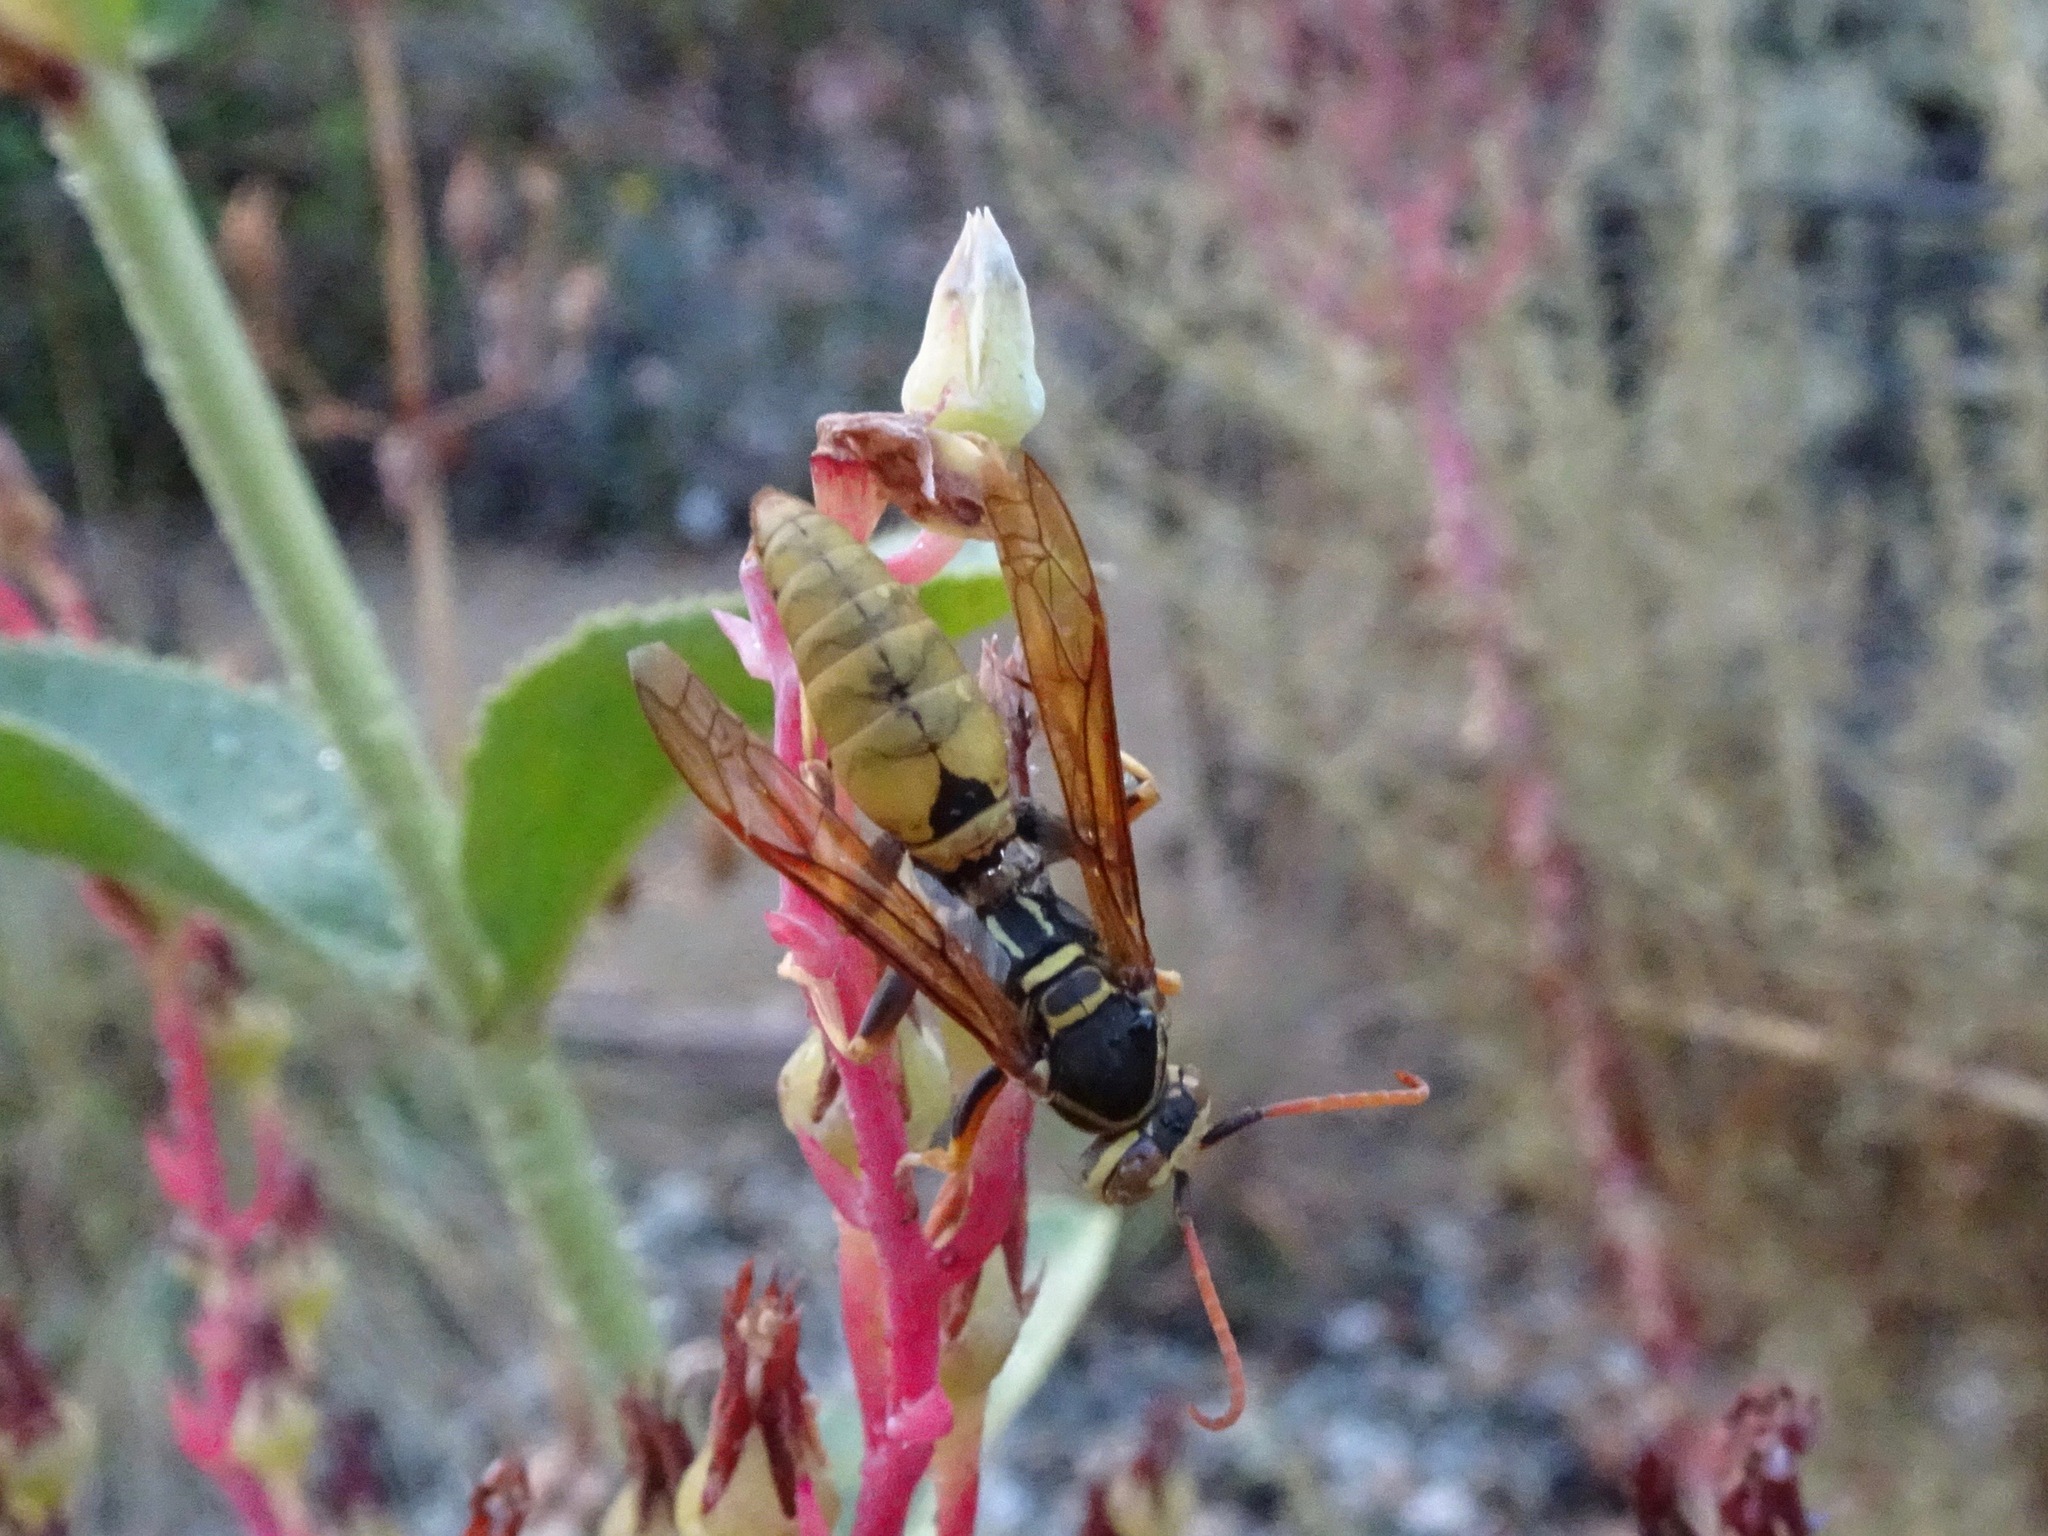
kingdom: Animalia
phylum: Arthropoda
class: Insecta
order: Hymenoptera
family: Eumenidae
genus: Polistes
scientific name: Polistes aurifer
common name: Paper wasp
